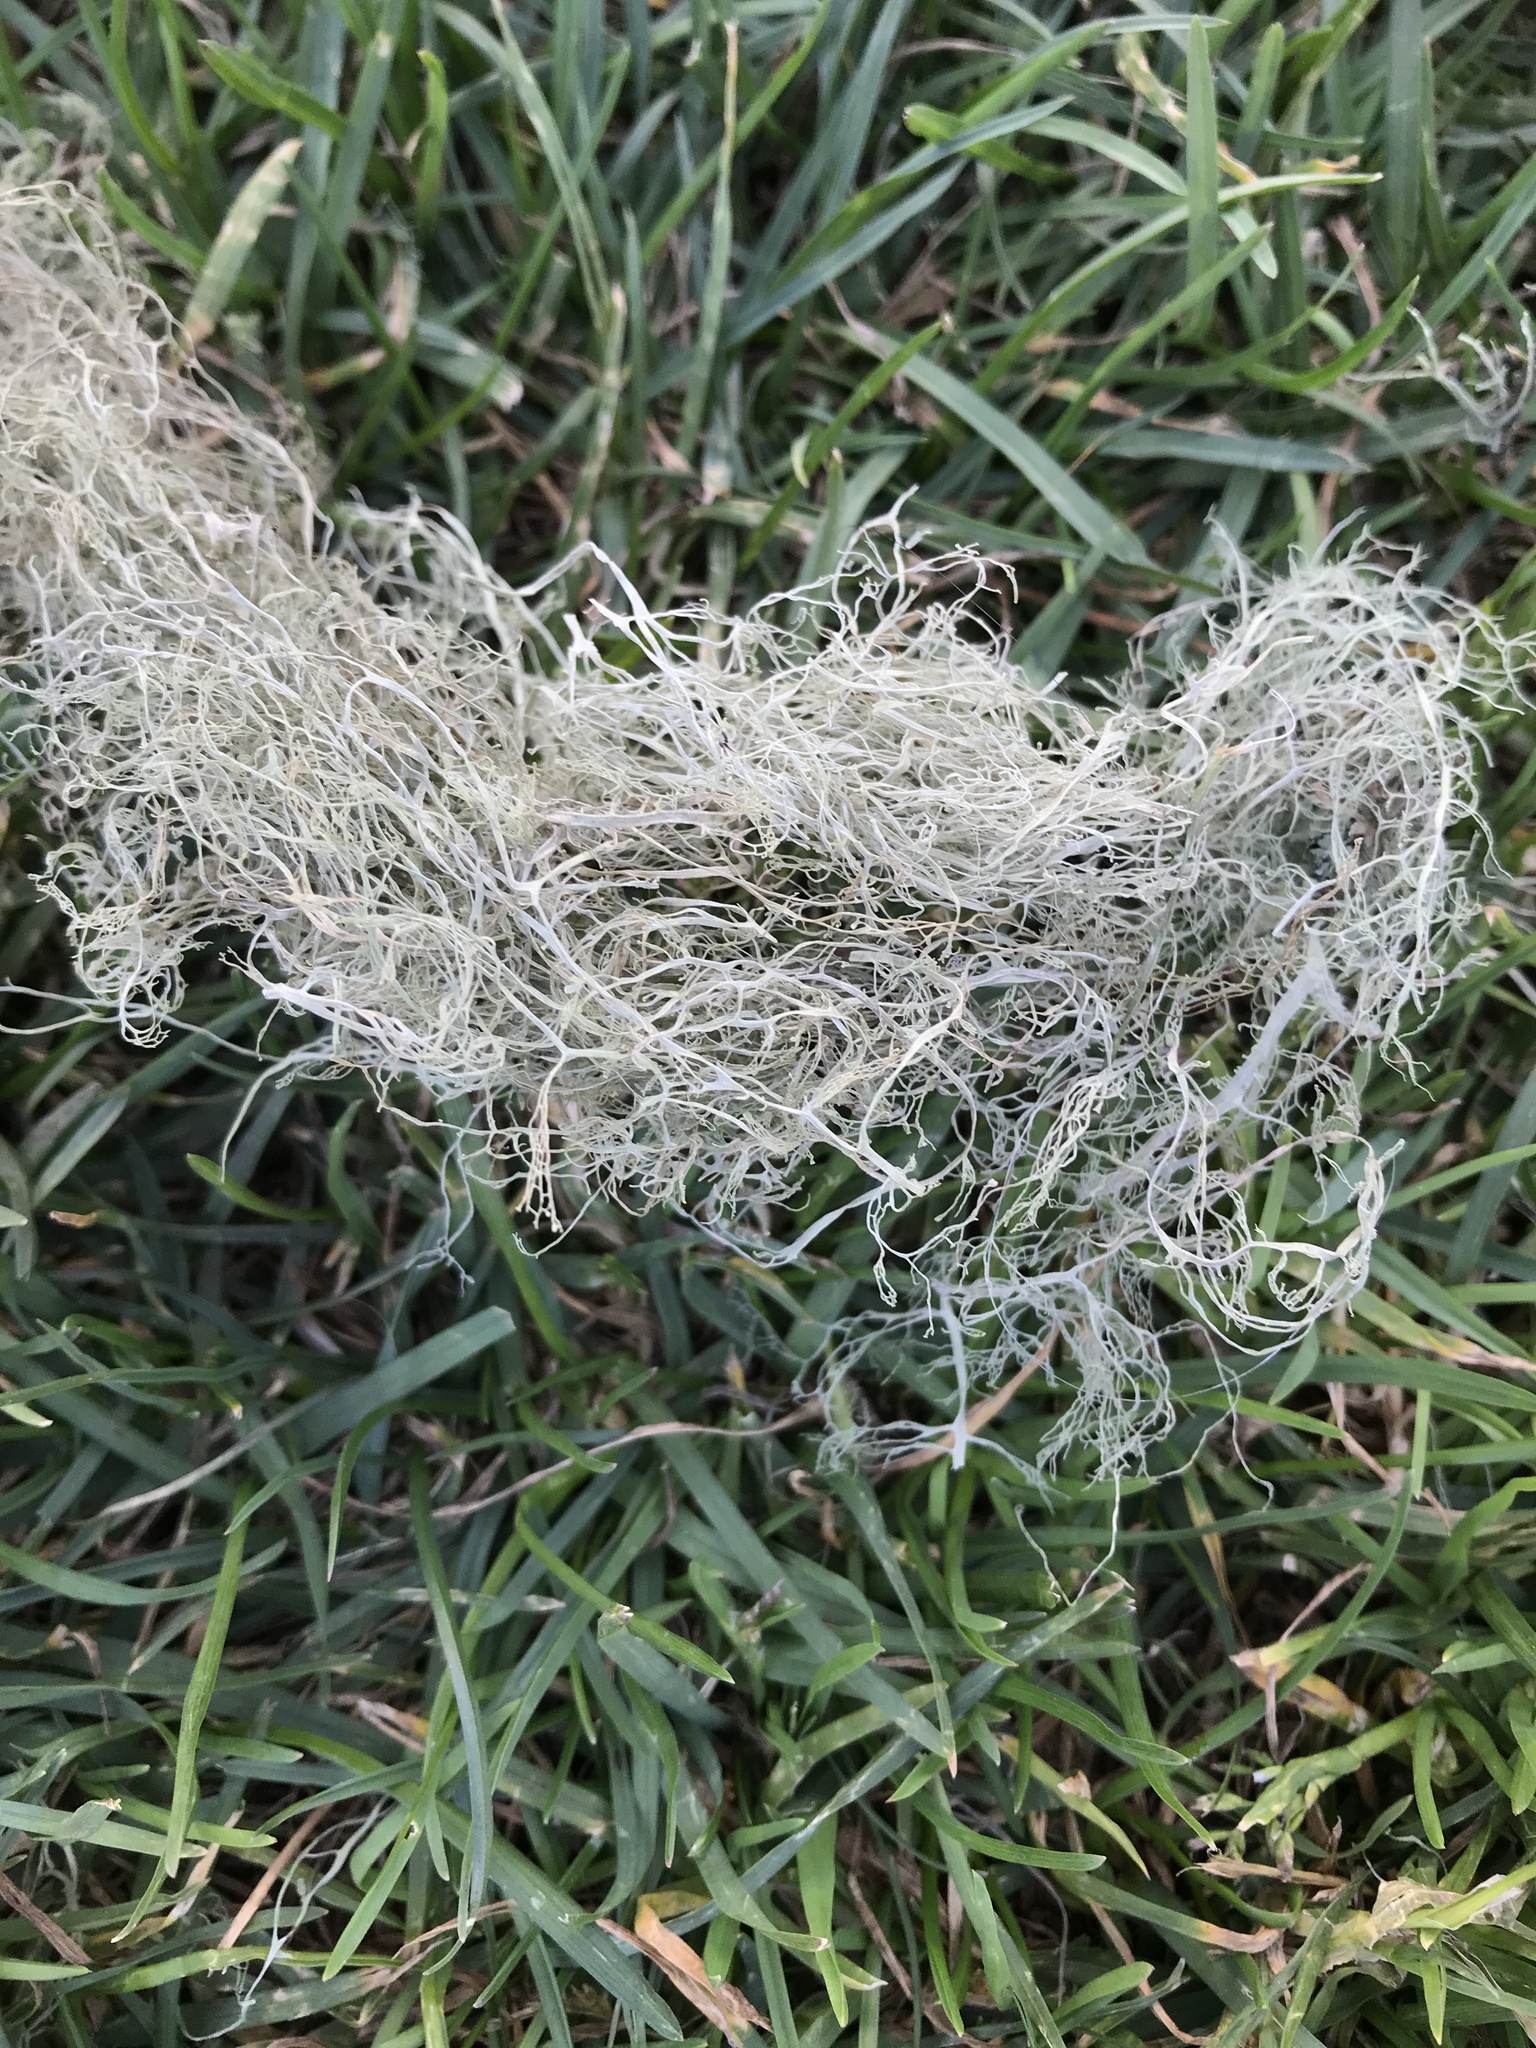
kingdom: Fungi
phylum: Ascomycota
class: Lecanoromycetes
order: Lecanorales
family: Ramalinaceae
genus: Ramalina
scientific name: Ramalina menziesii
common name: Lace lichen
